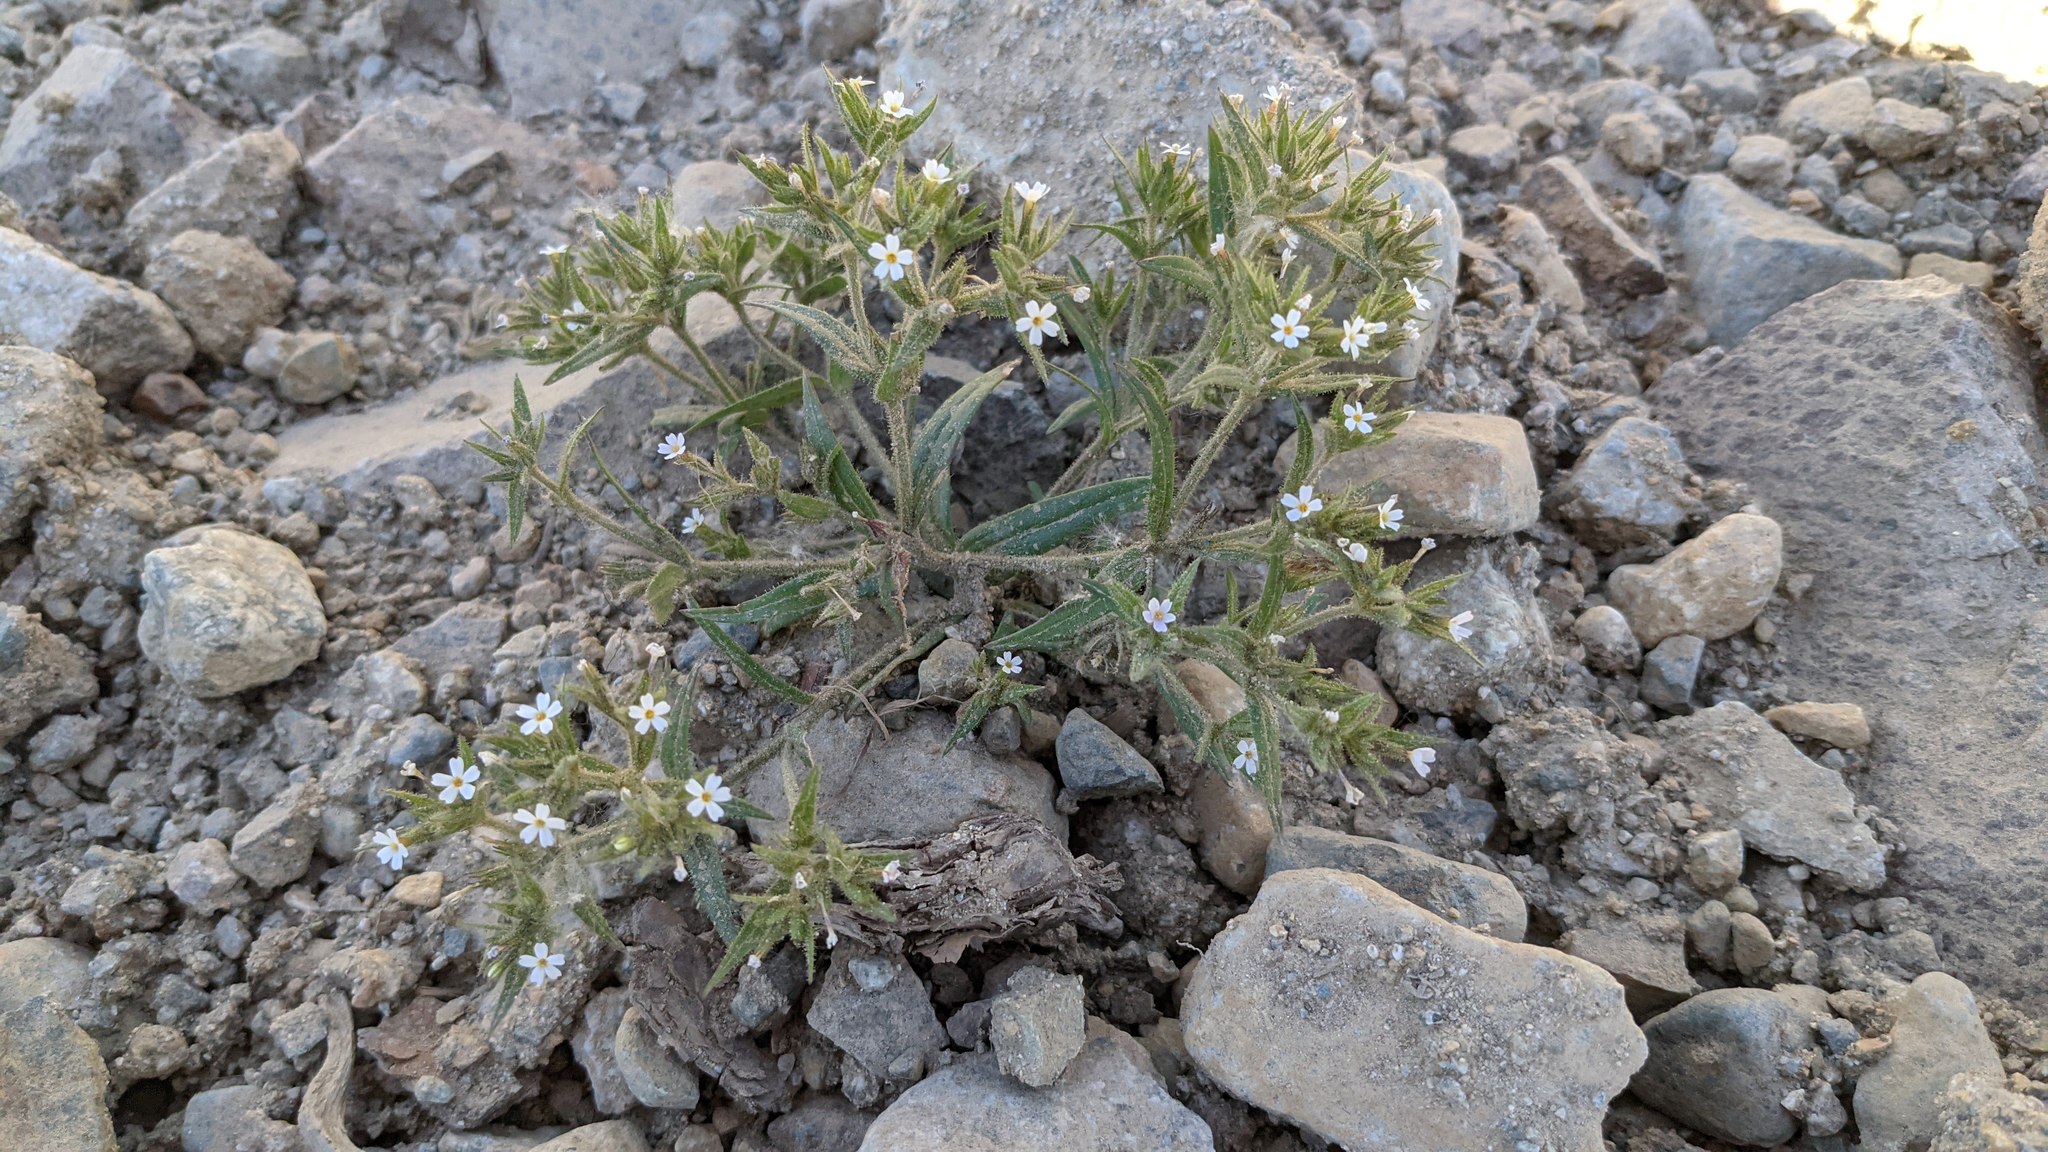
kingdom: Plantae
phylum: Tracheophyta
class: Magnoliopsida
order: Ericales
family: Polemoniaceae
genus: Phlox
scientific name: Phlox gracilis
